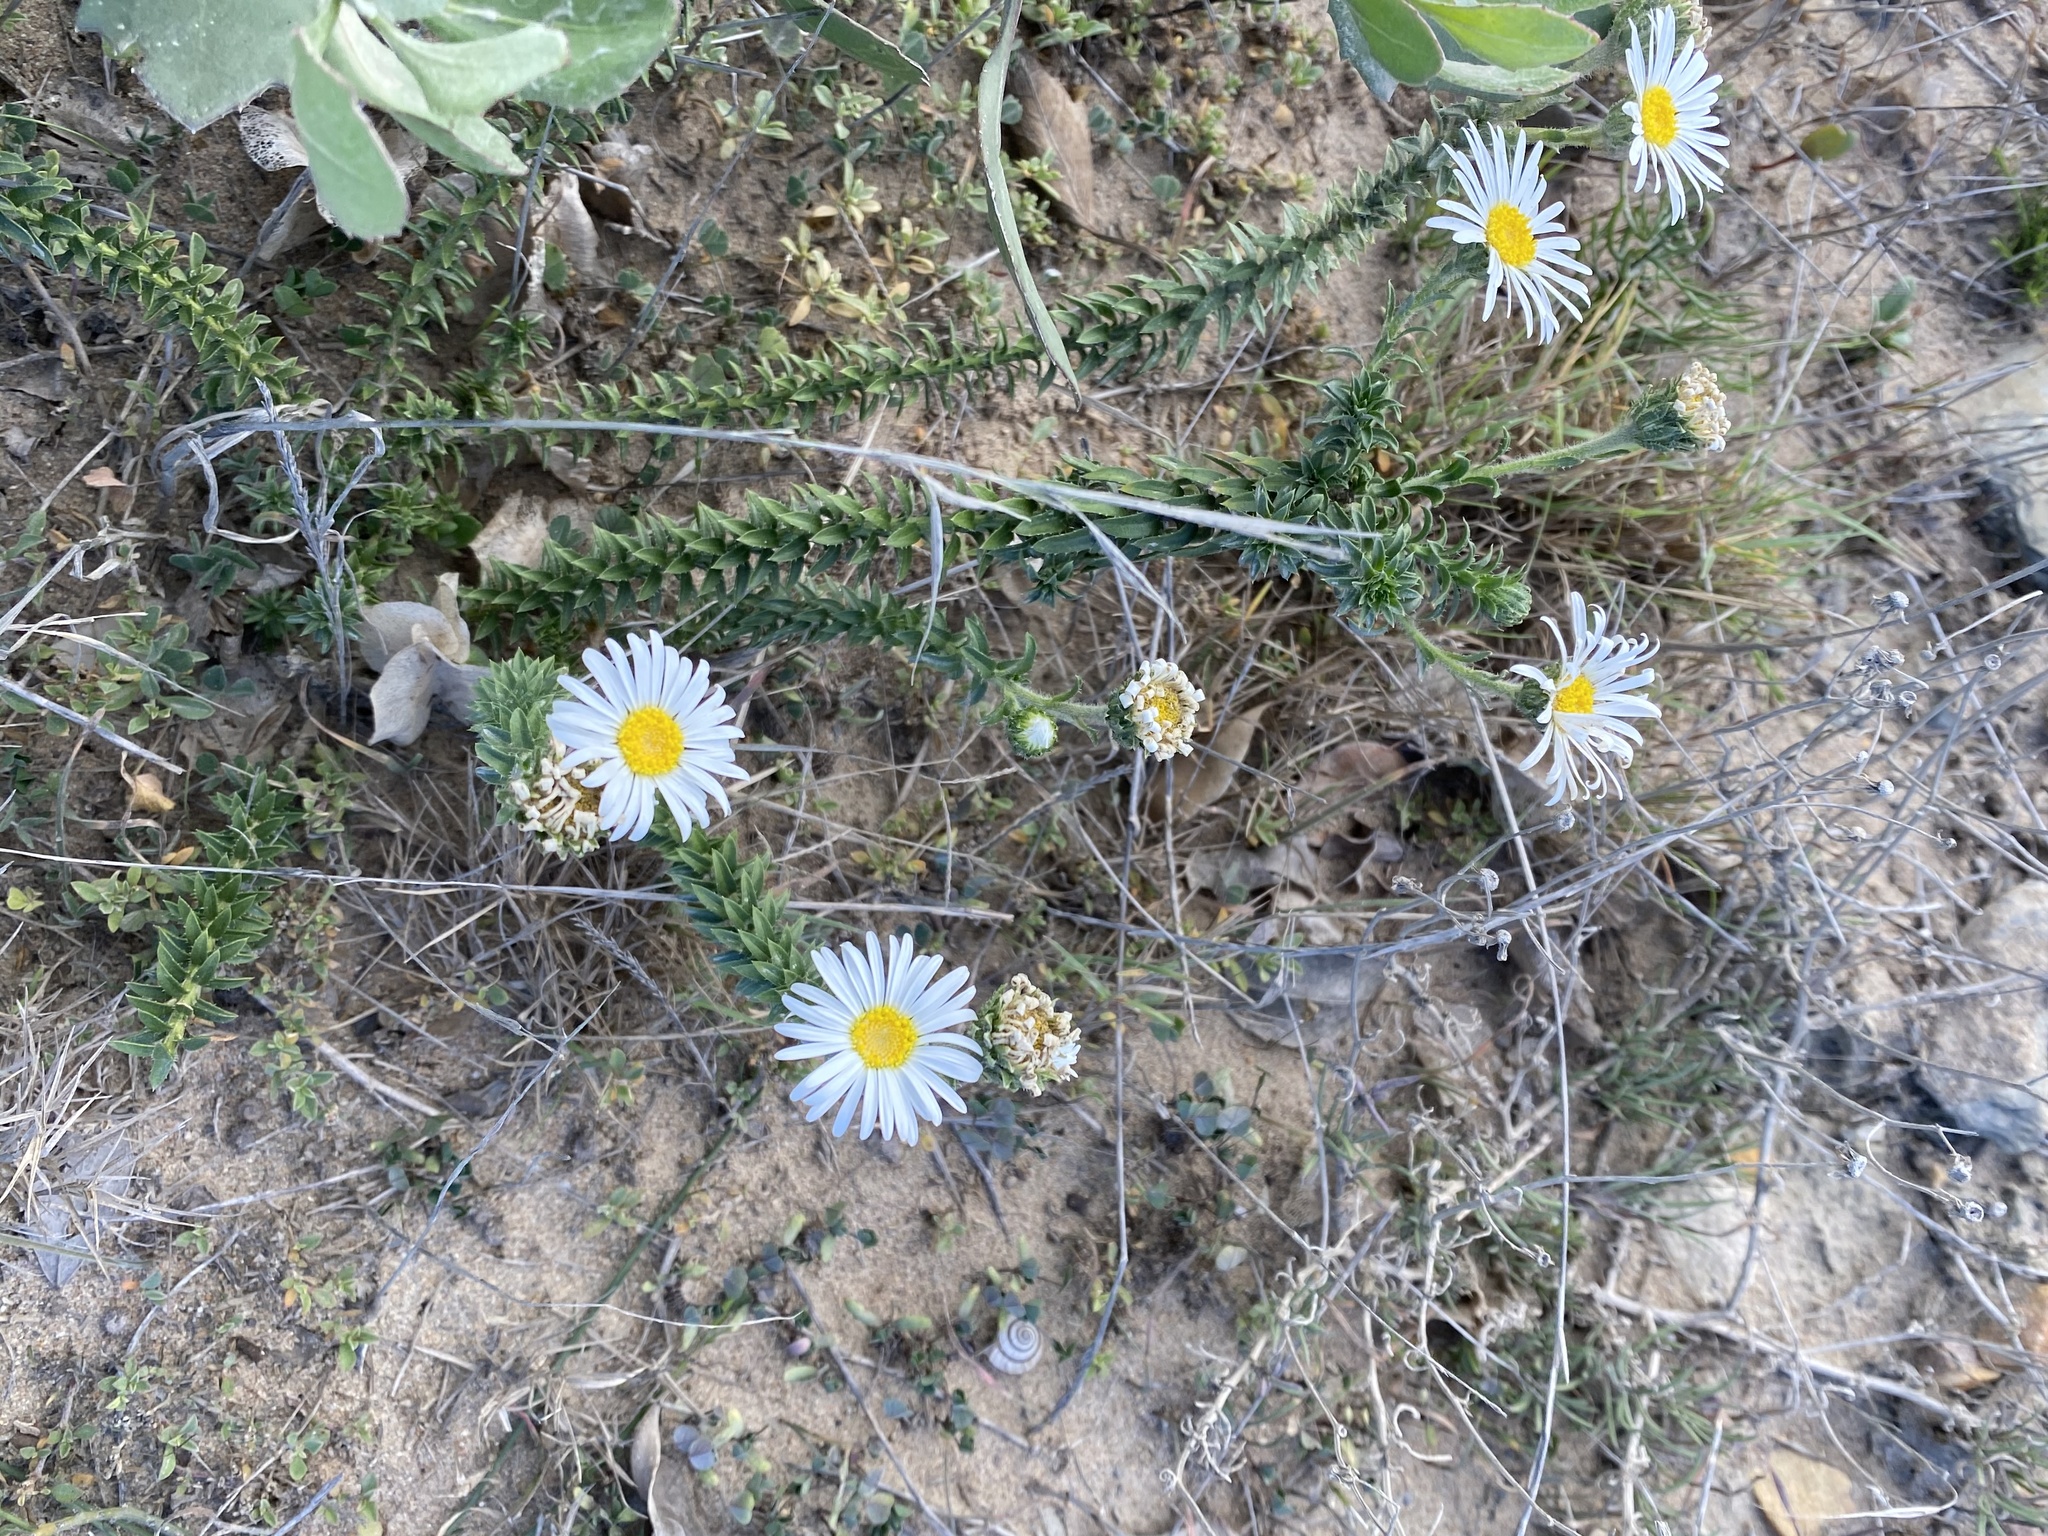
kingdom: Plantae
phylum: Tracheophyta
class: Magnoliopsida
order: Asterales
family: Asteraceae
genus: Felicia
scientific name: Felicia echinata
